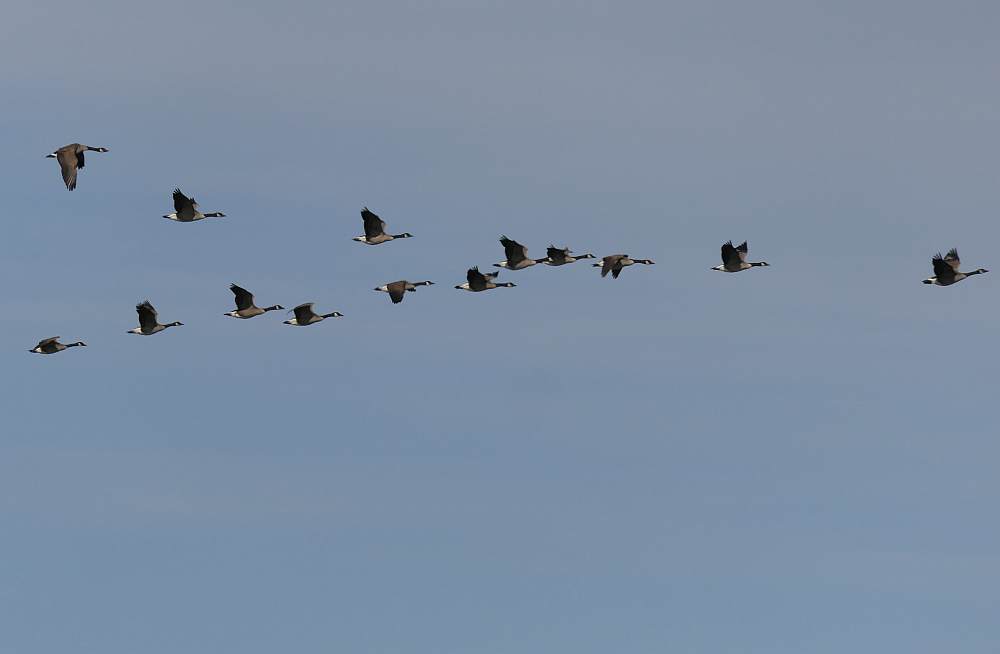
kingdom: Animalia
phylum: Chordata
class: Aves
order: Anseriformes
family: Anatidae
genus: Branta
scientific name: Branta canadensis
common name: Canada goose
